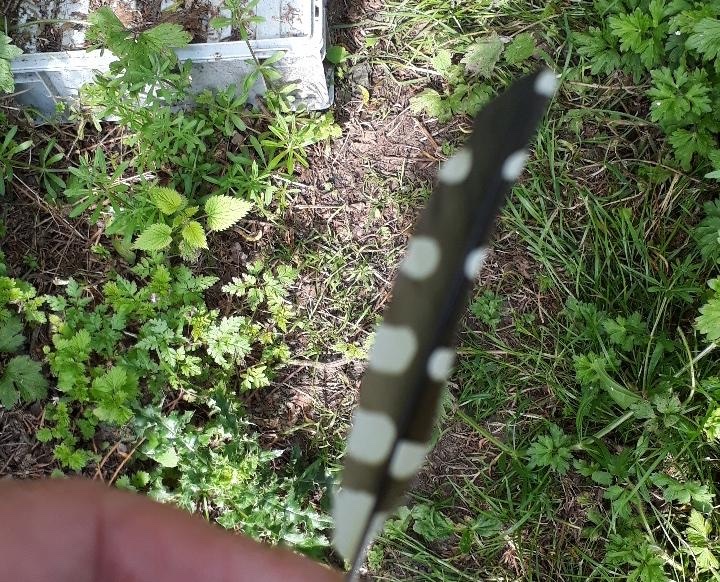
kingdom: Animalia
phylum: Chordata
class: Aves
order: Piciformes
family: Picidae
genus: Dendrocopos
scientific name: Dendrocopos major
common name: Great spotted woodpecker
